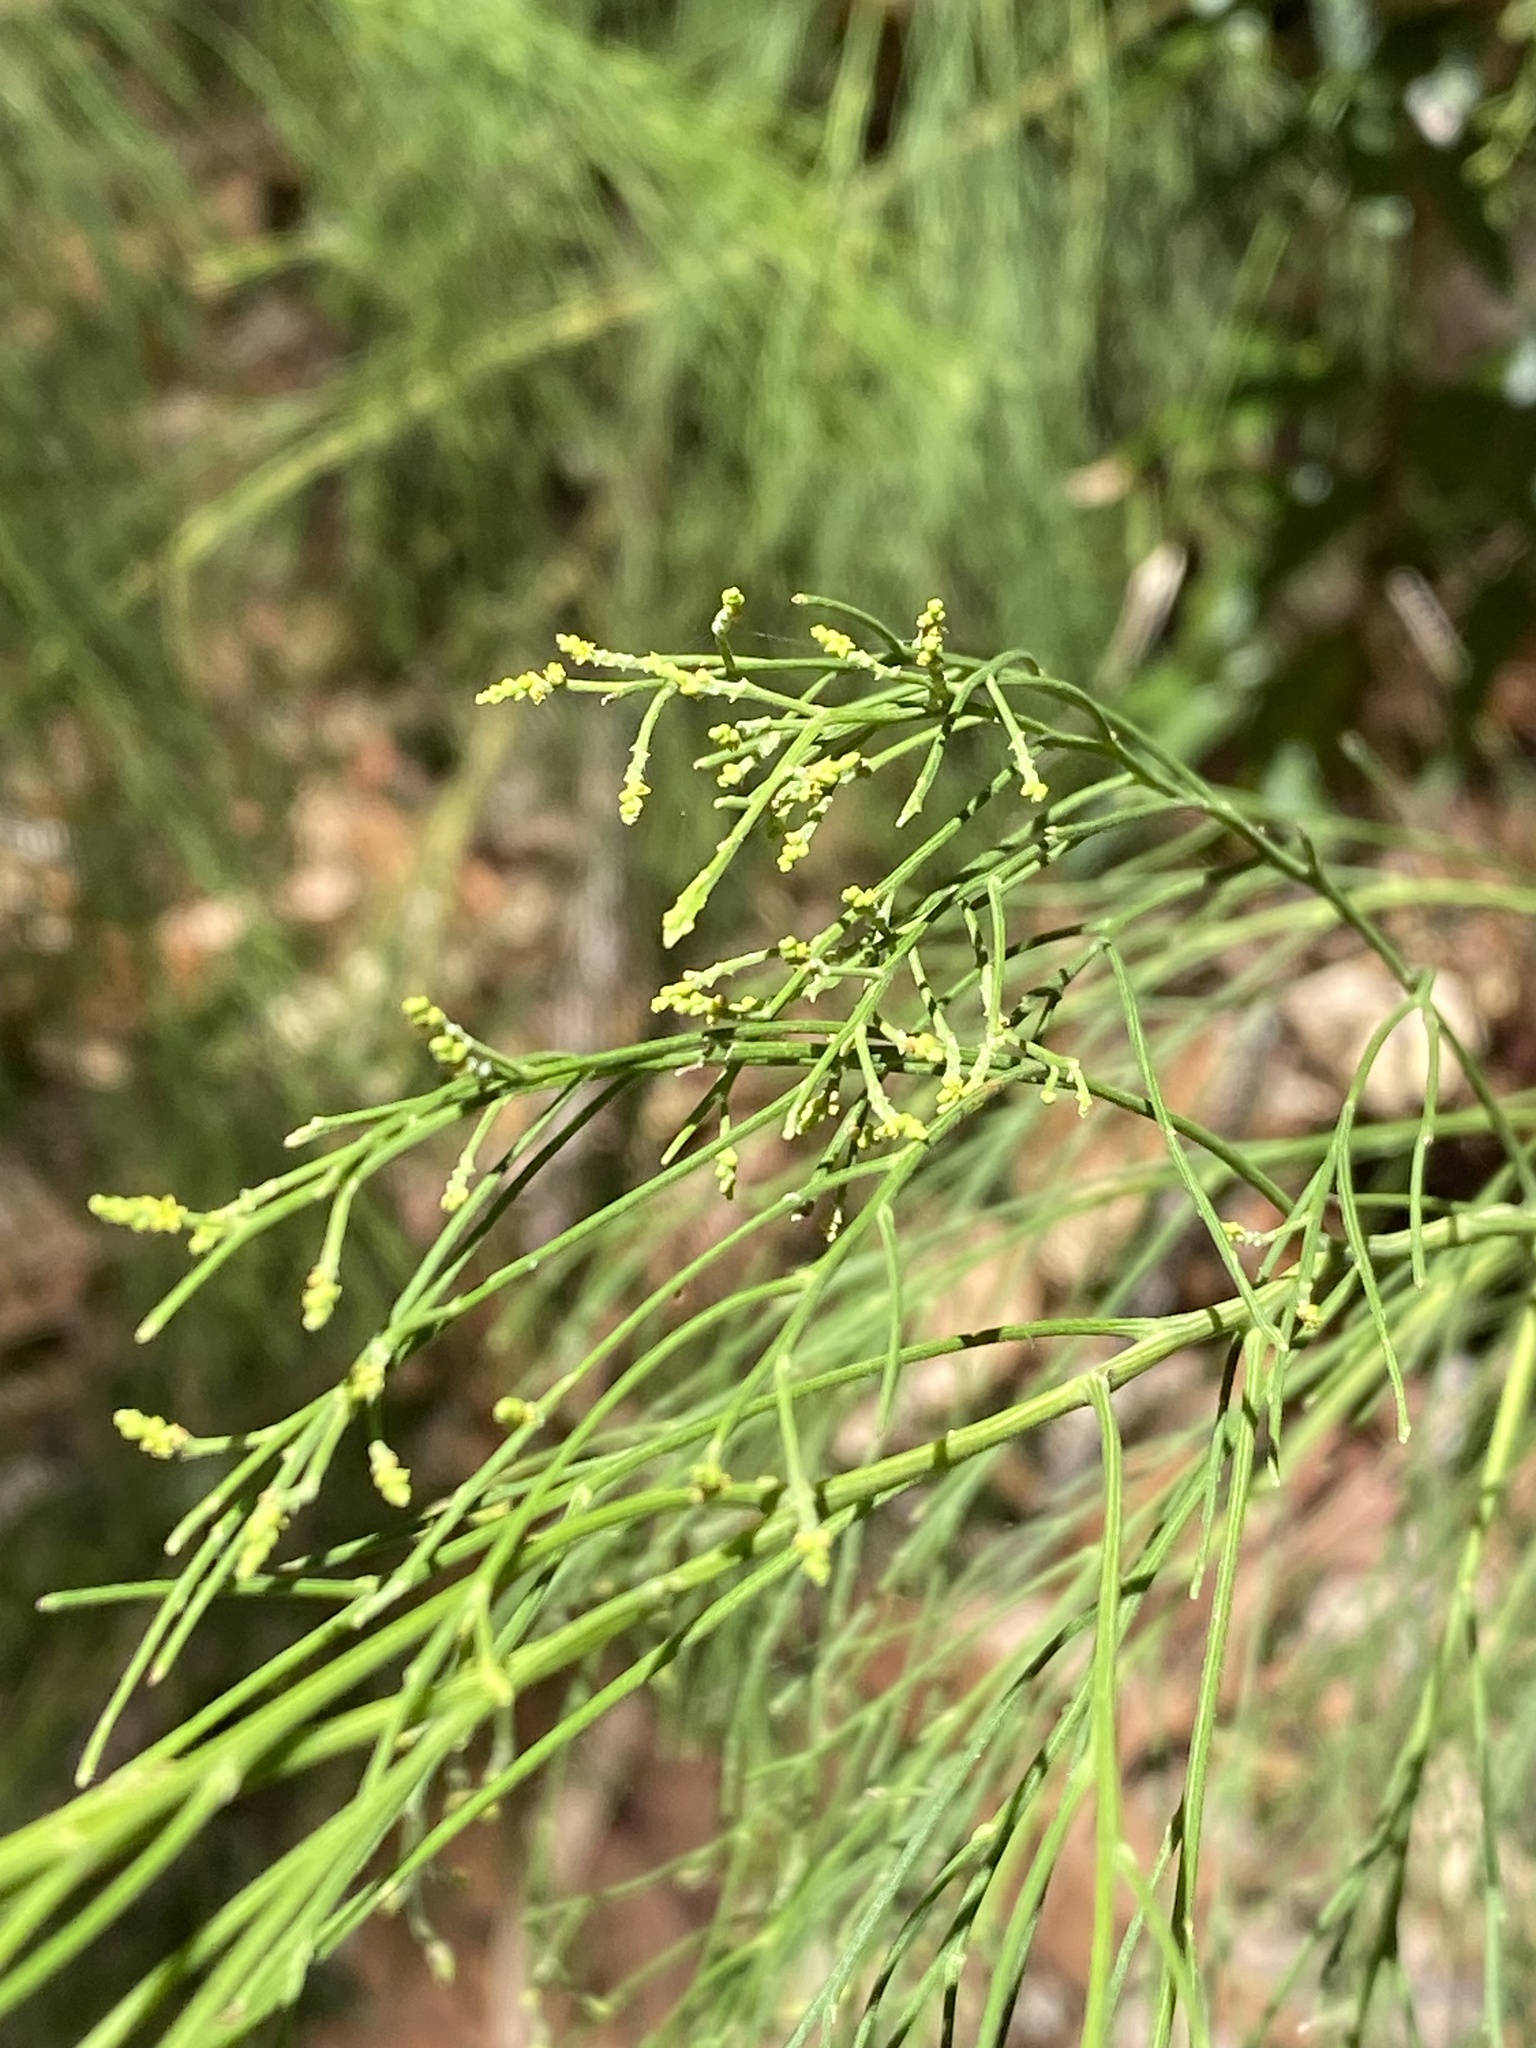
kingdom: Plantae
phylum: Tracheophyta
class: Magnoliopsida
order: Santalales
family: Santalaceae
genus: Exocarpos
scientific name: Exocarpos cupressiformis
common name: Cherry ballart
